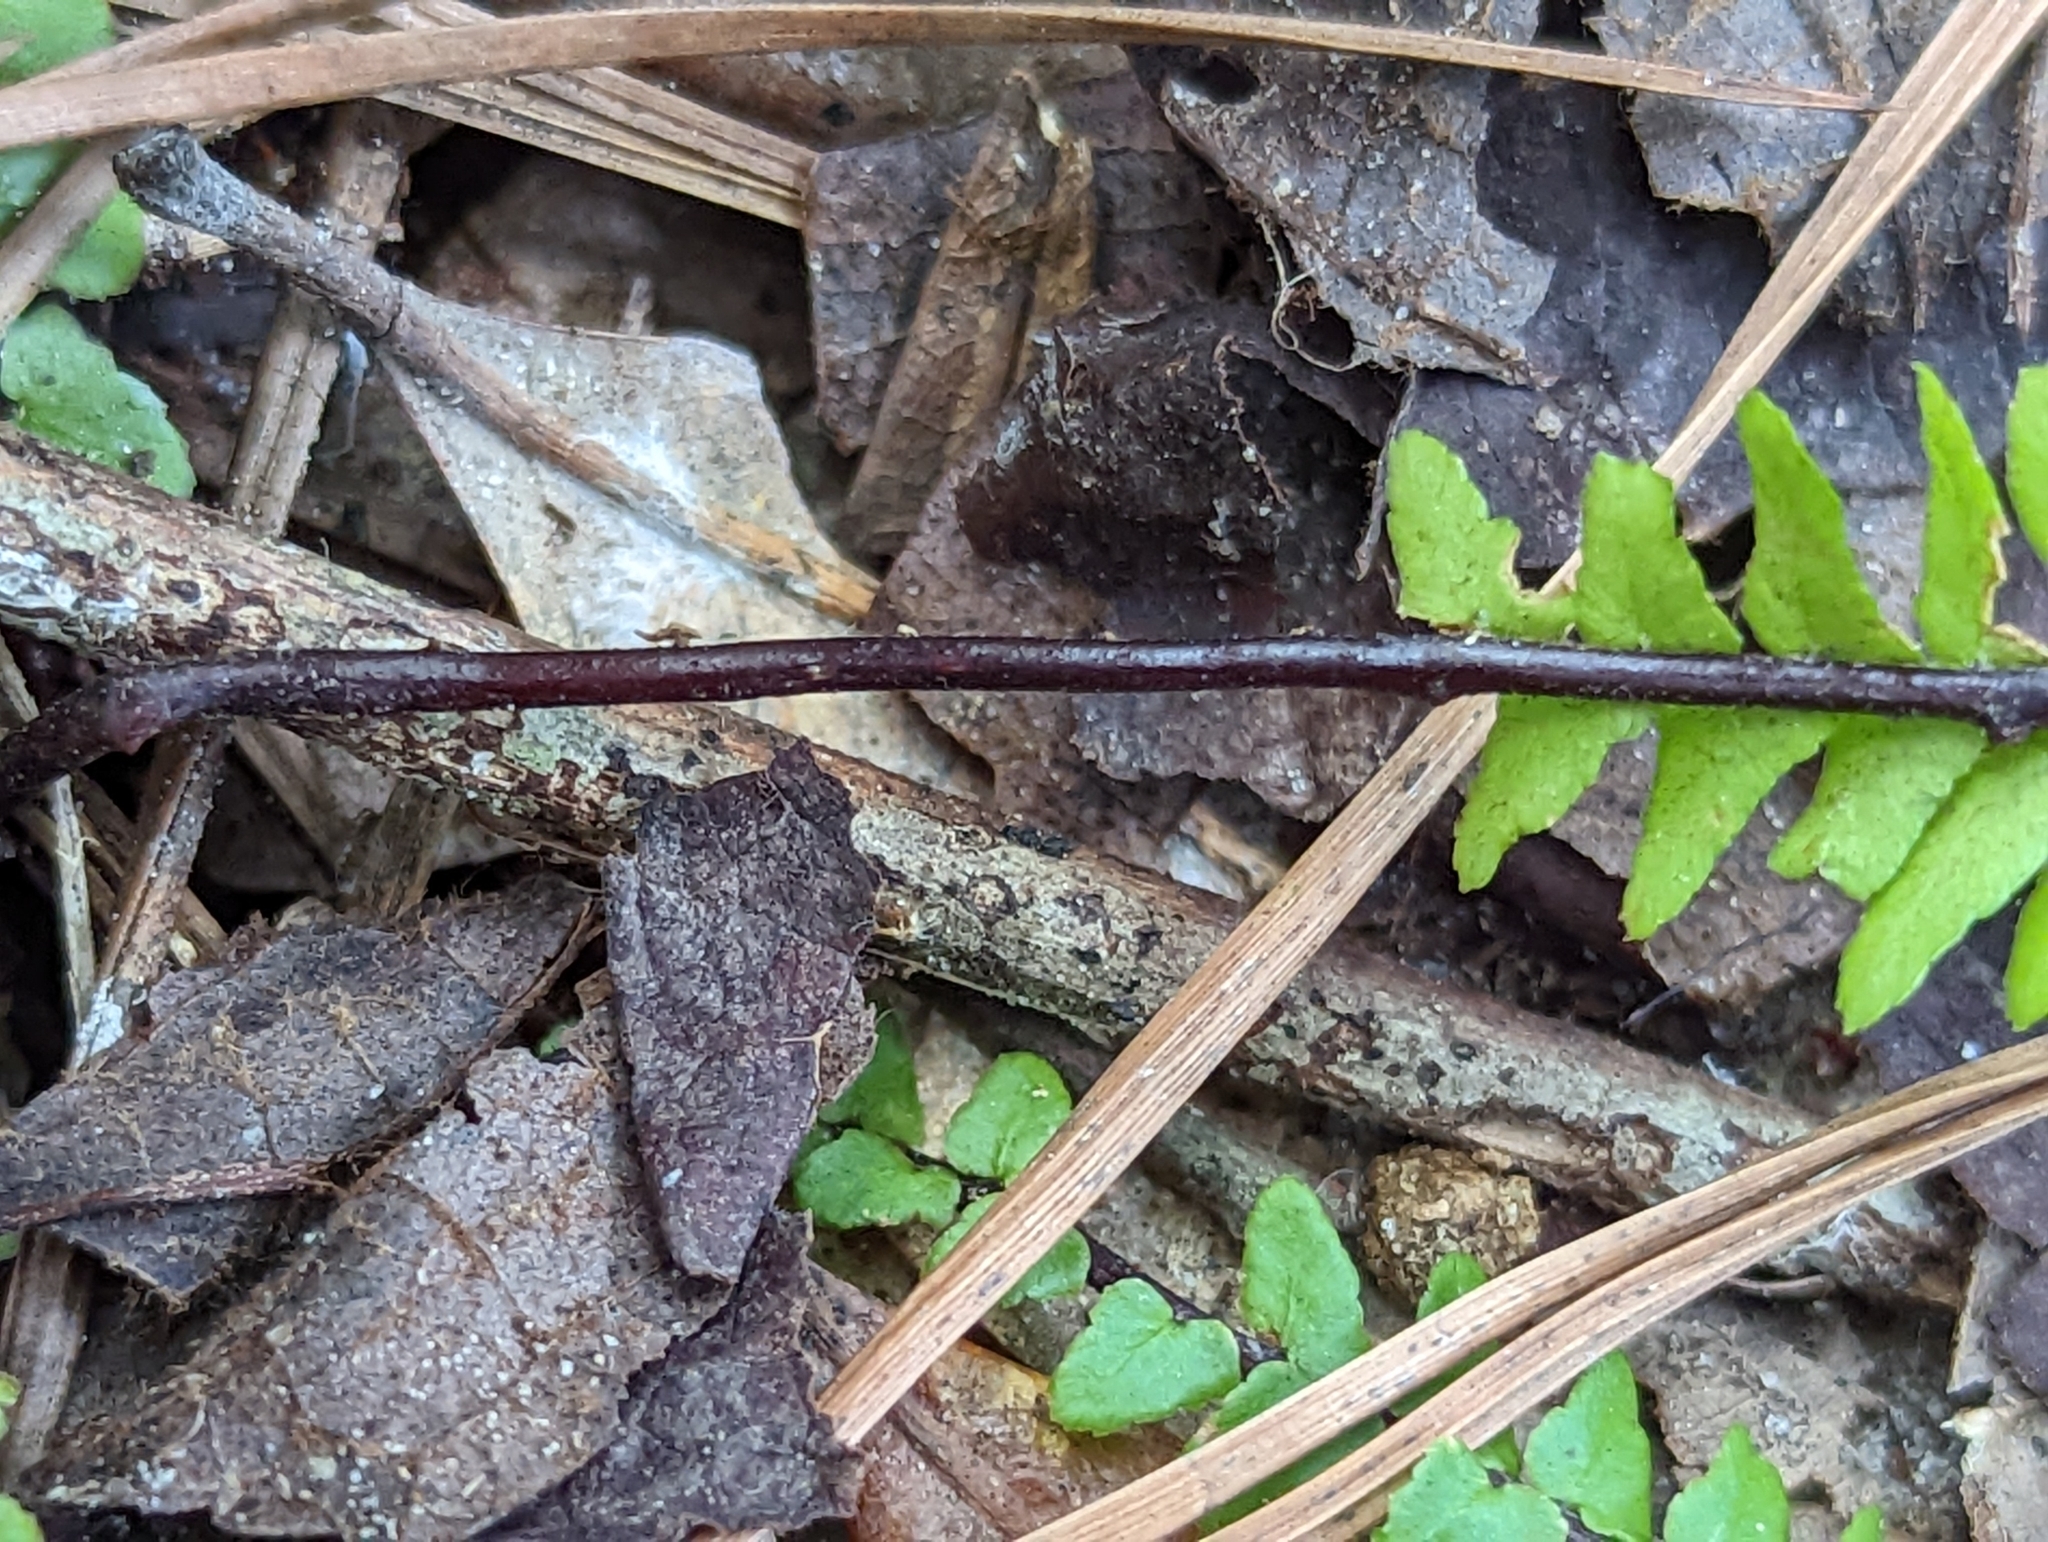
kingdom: Plantae
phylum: Tracheophyta
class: Polypodiopsida
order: Polypodiales
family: Aspleniaceae
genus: Asplenium
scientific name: Asplenium platyneuron
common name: Ebony spleenwort
